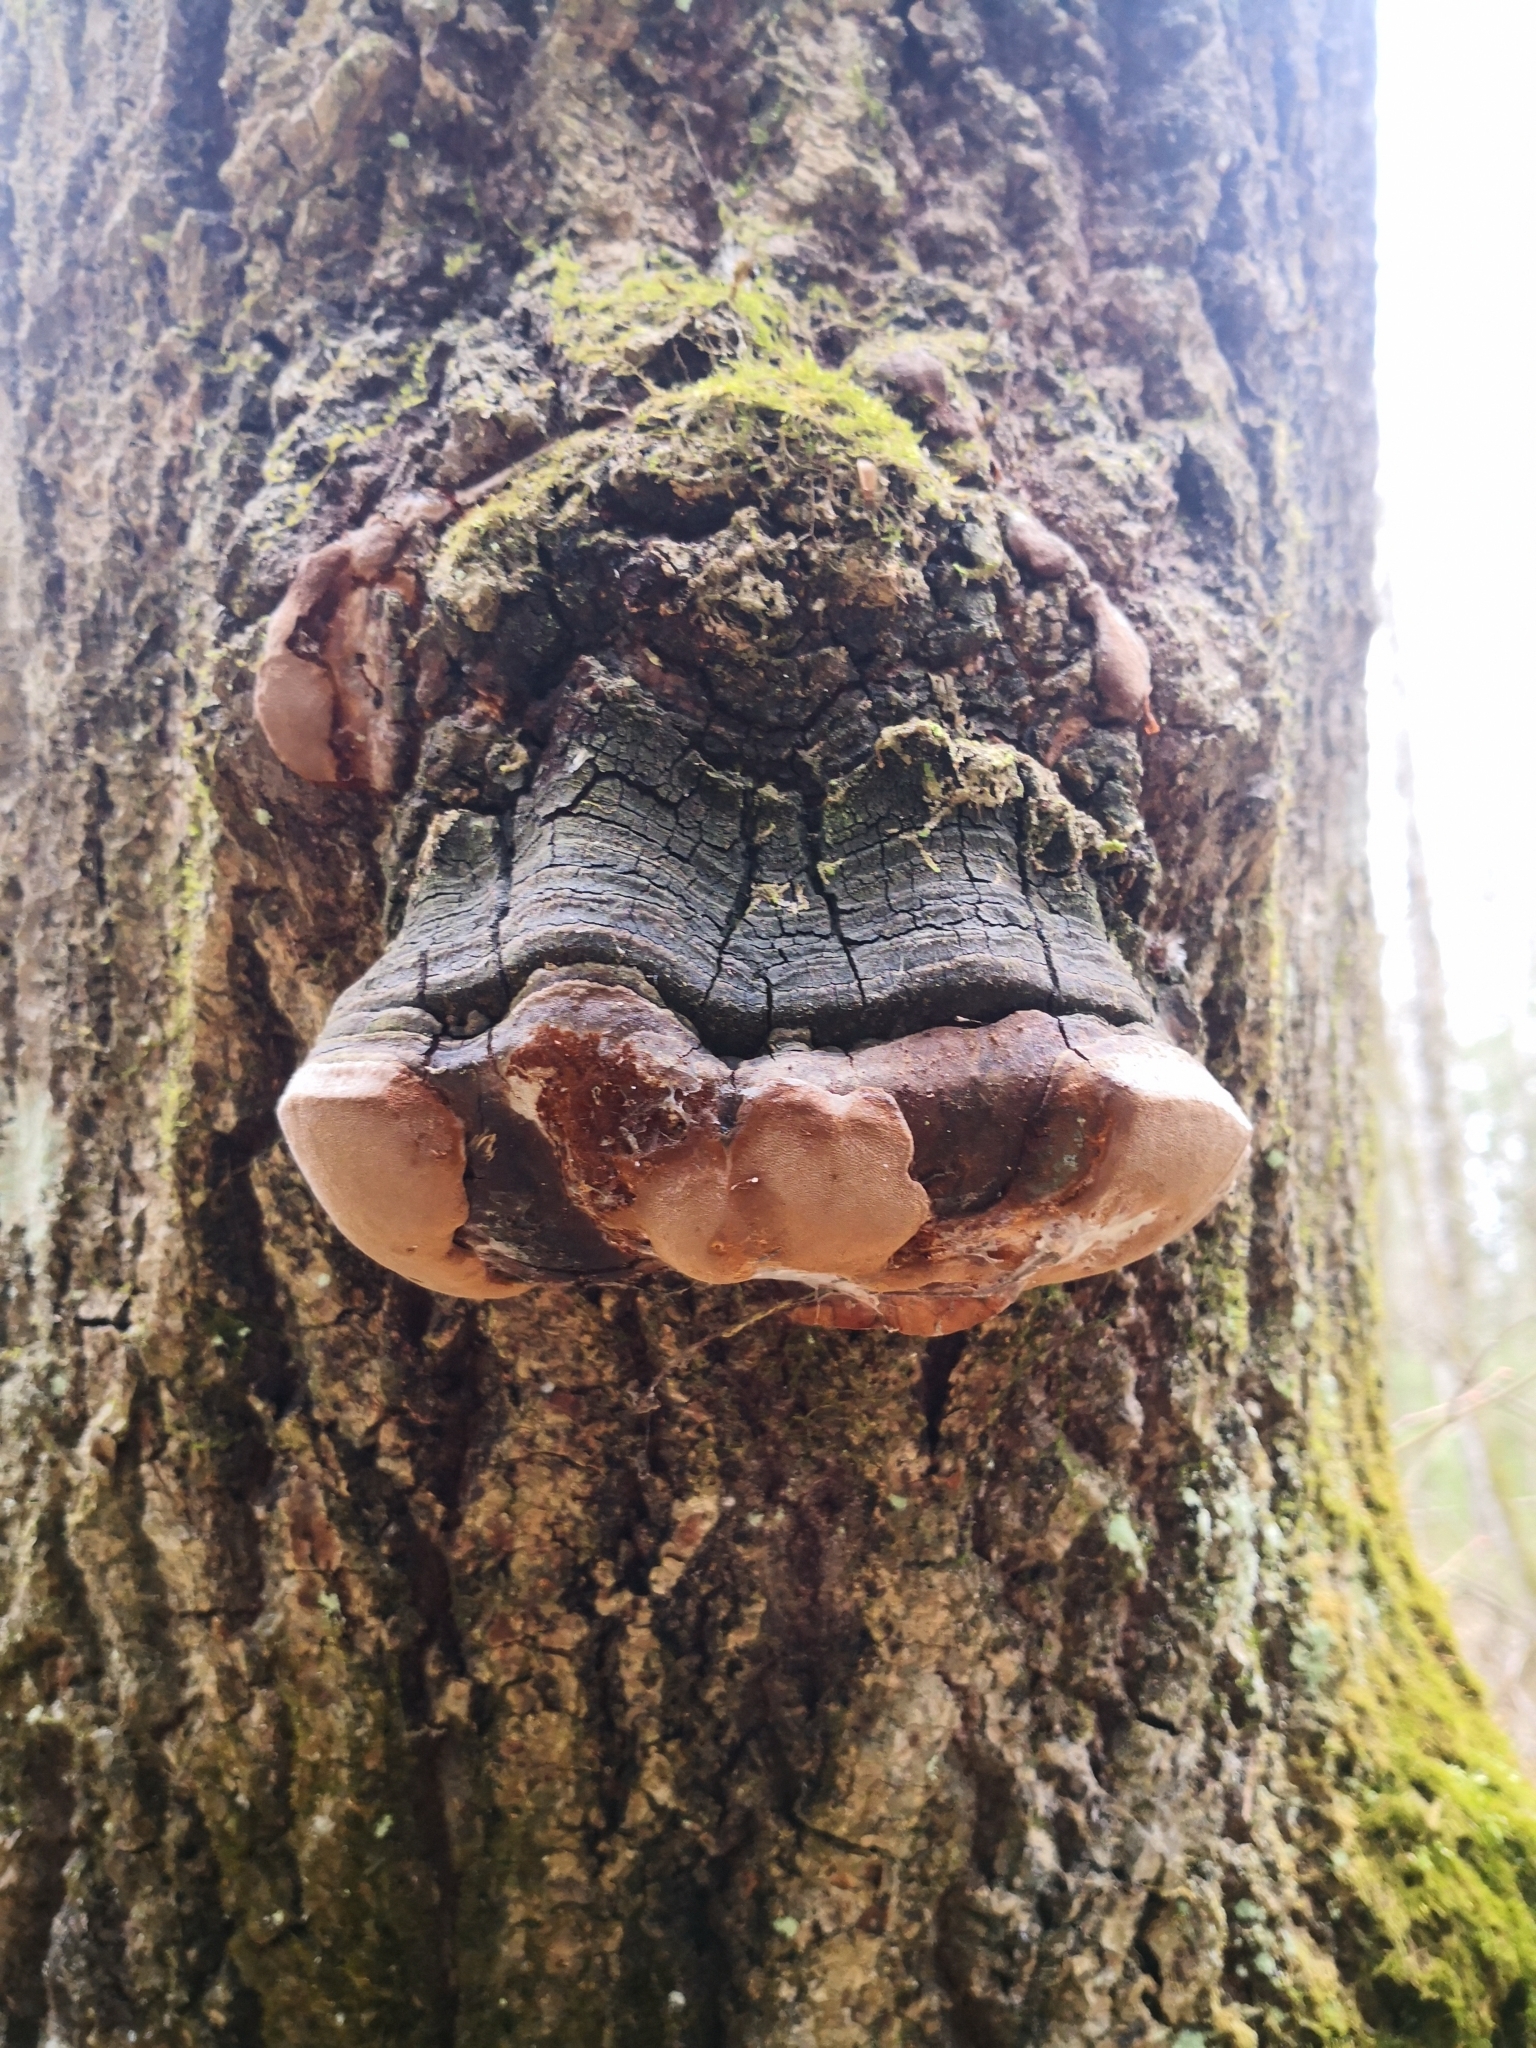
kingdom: Fungi
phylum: Basidiomycota
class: Agaricomycetes
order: Hymenochaetales
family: Hymenochaetaceae
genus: Phellinus
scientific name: Phellinus tremulae
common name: Aspen bracket
